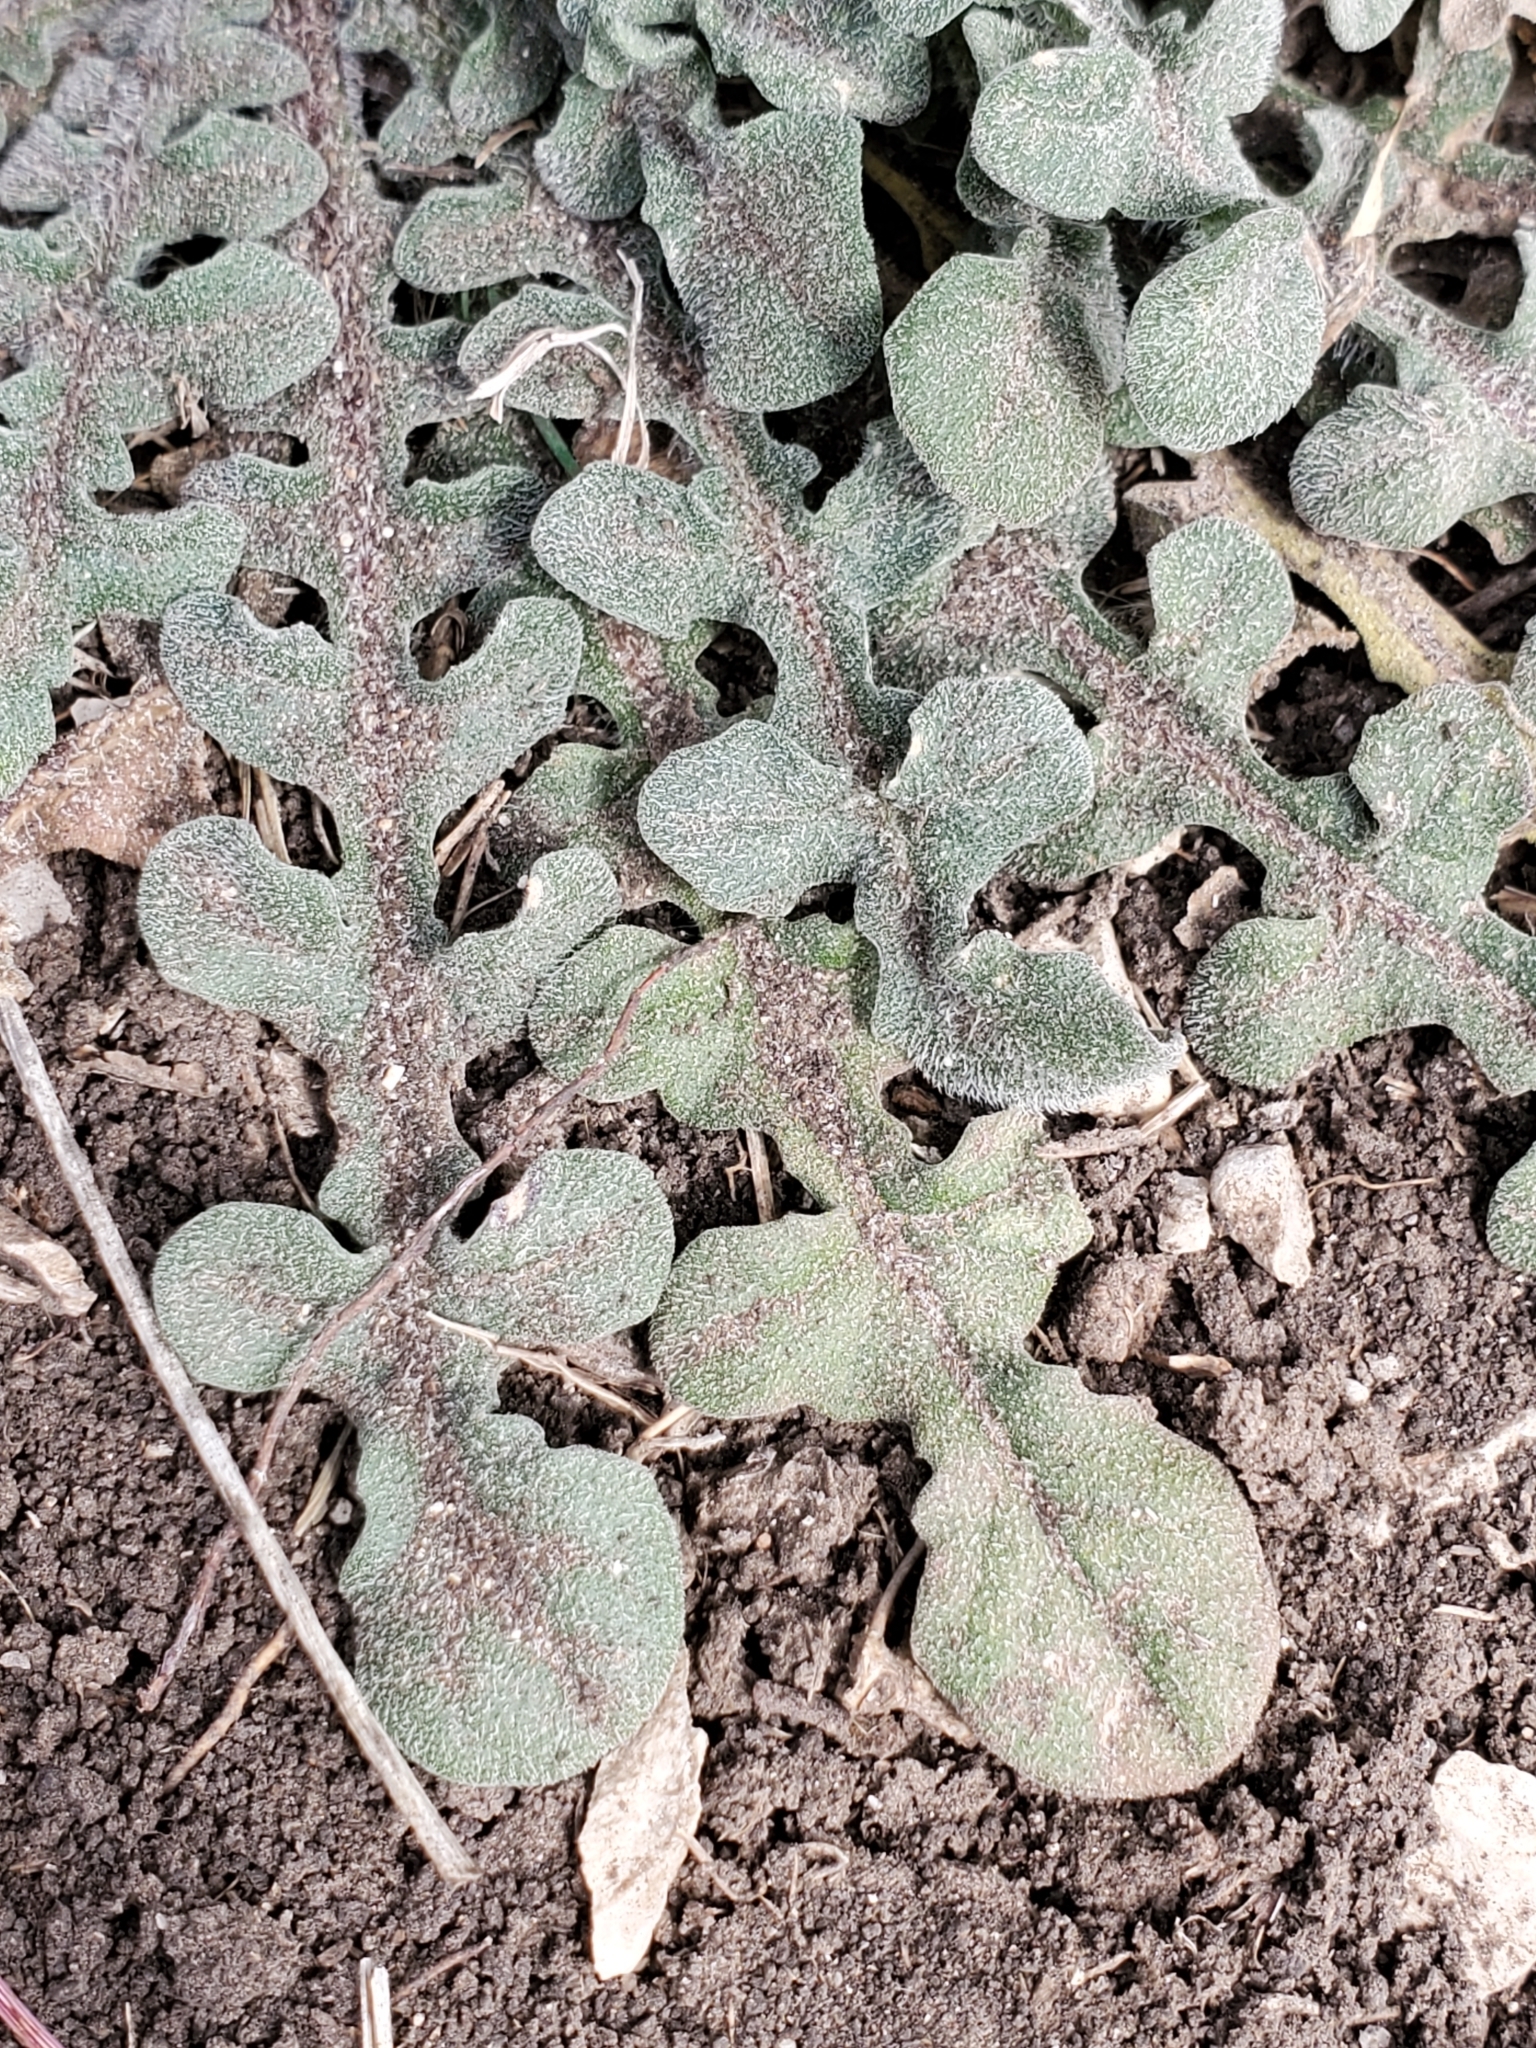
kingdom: Plantae
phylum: Tracheophyta
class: Magnoliopsida
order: Asterales
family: Asteraceae
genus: Centaurea
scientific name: Centaurea melitensis
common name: Maltese star-thistle
